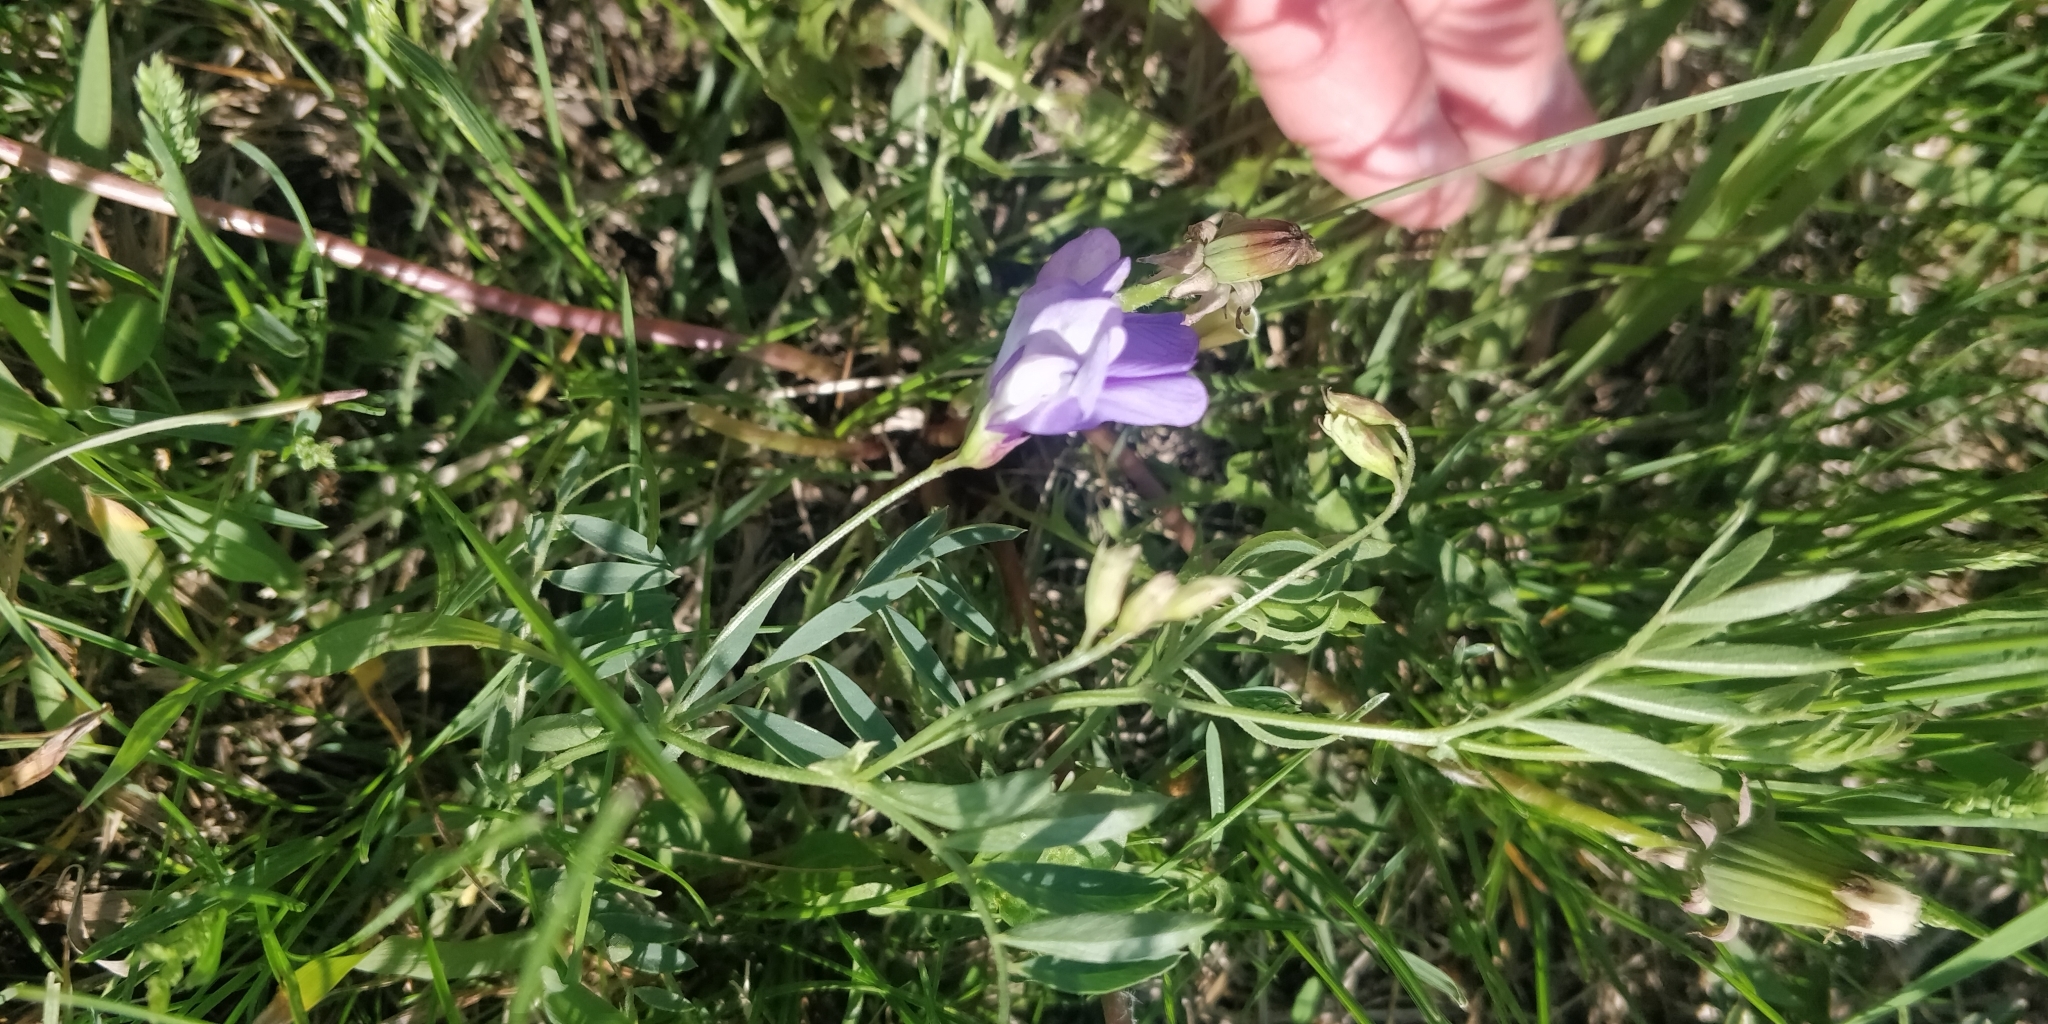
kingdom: Plantae
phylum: Tracheophyta
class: Magnoliopsida
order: Fabales
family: Fabaceae
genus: Vicia
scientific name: Vicia americana
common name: American vetch
